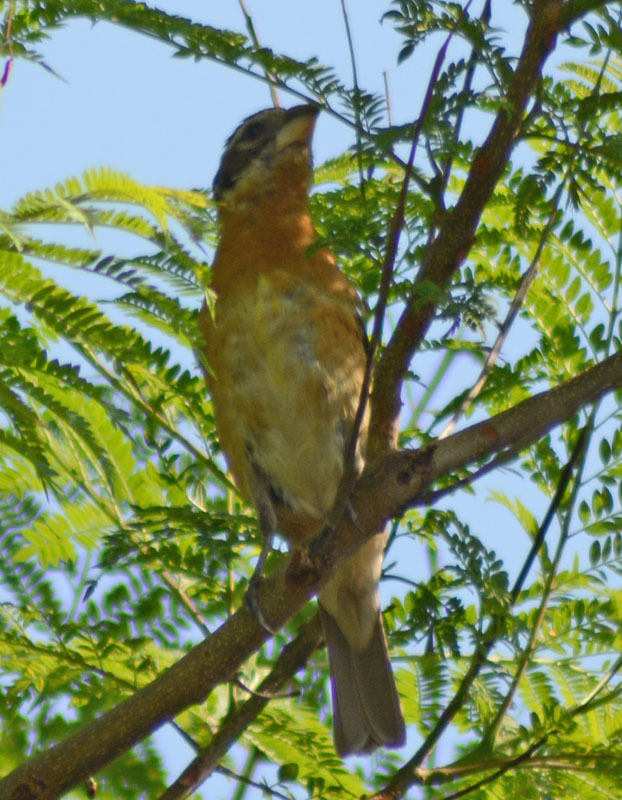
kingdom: Animalia
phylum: Chordata
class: Aves
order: Passeriformes
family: Cardinalidae
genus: Pheucticus
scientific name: Pheucticus melanocephalus
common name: Black-headed grosbeak
